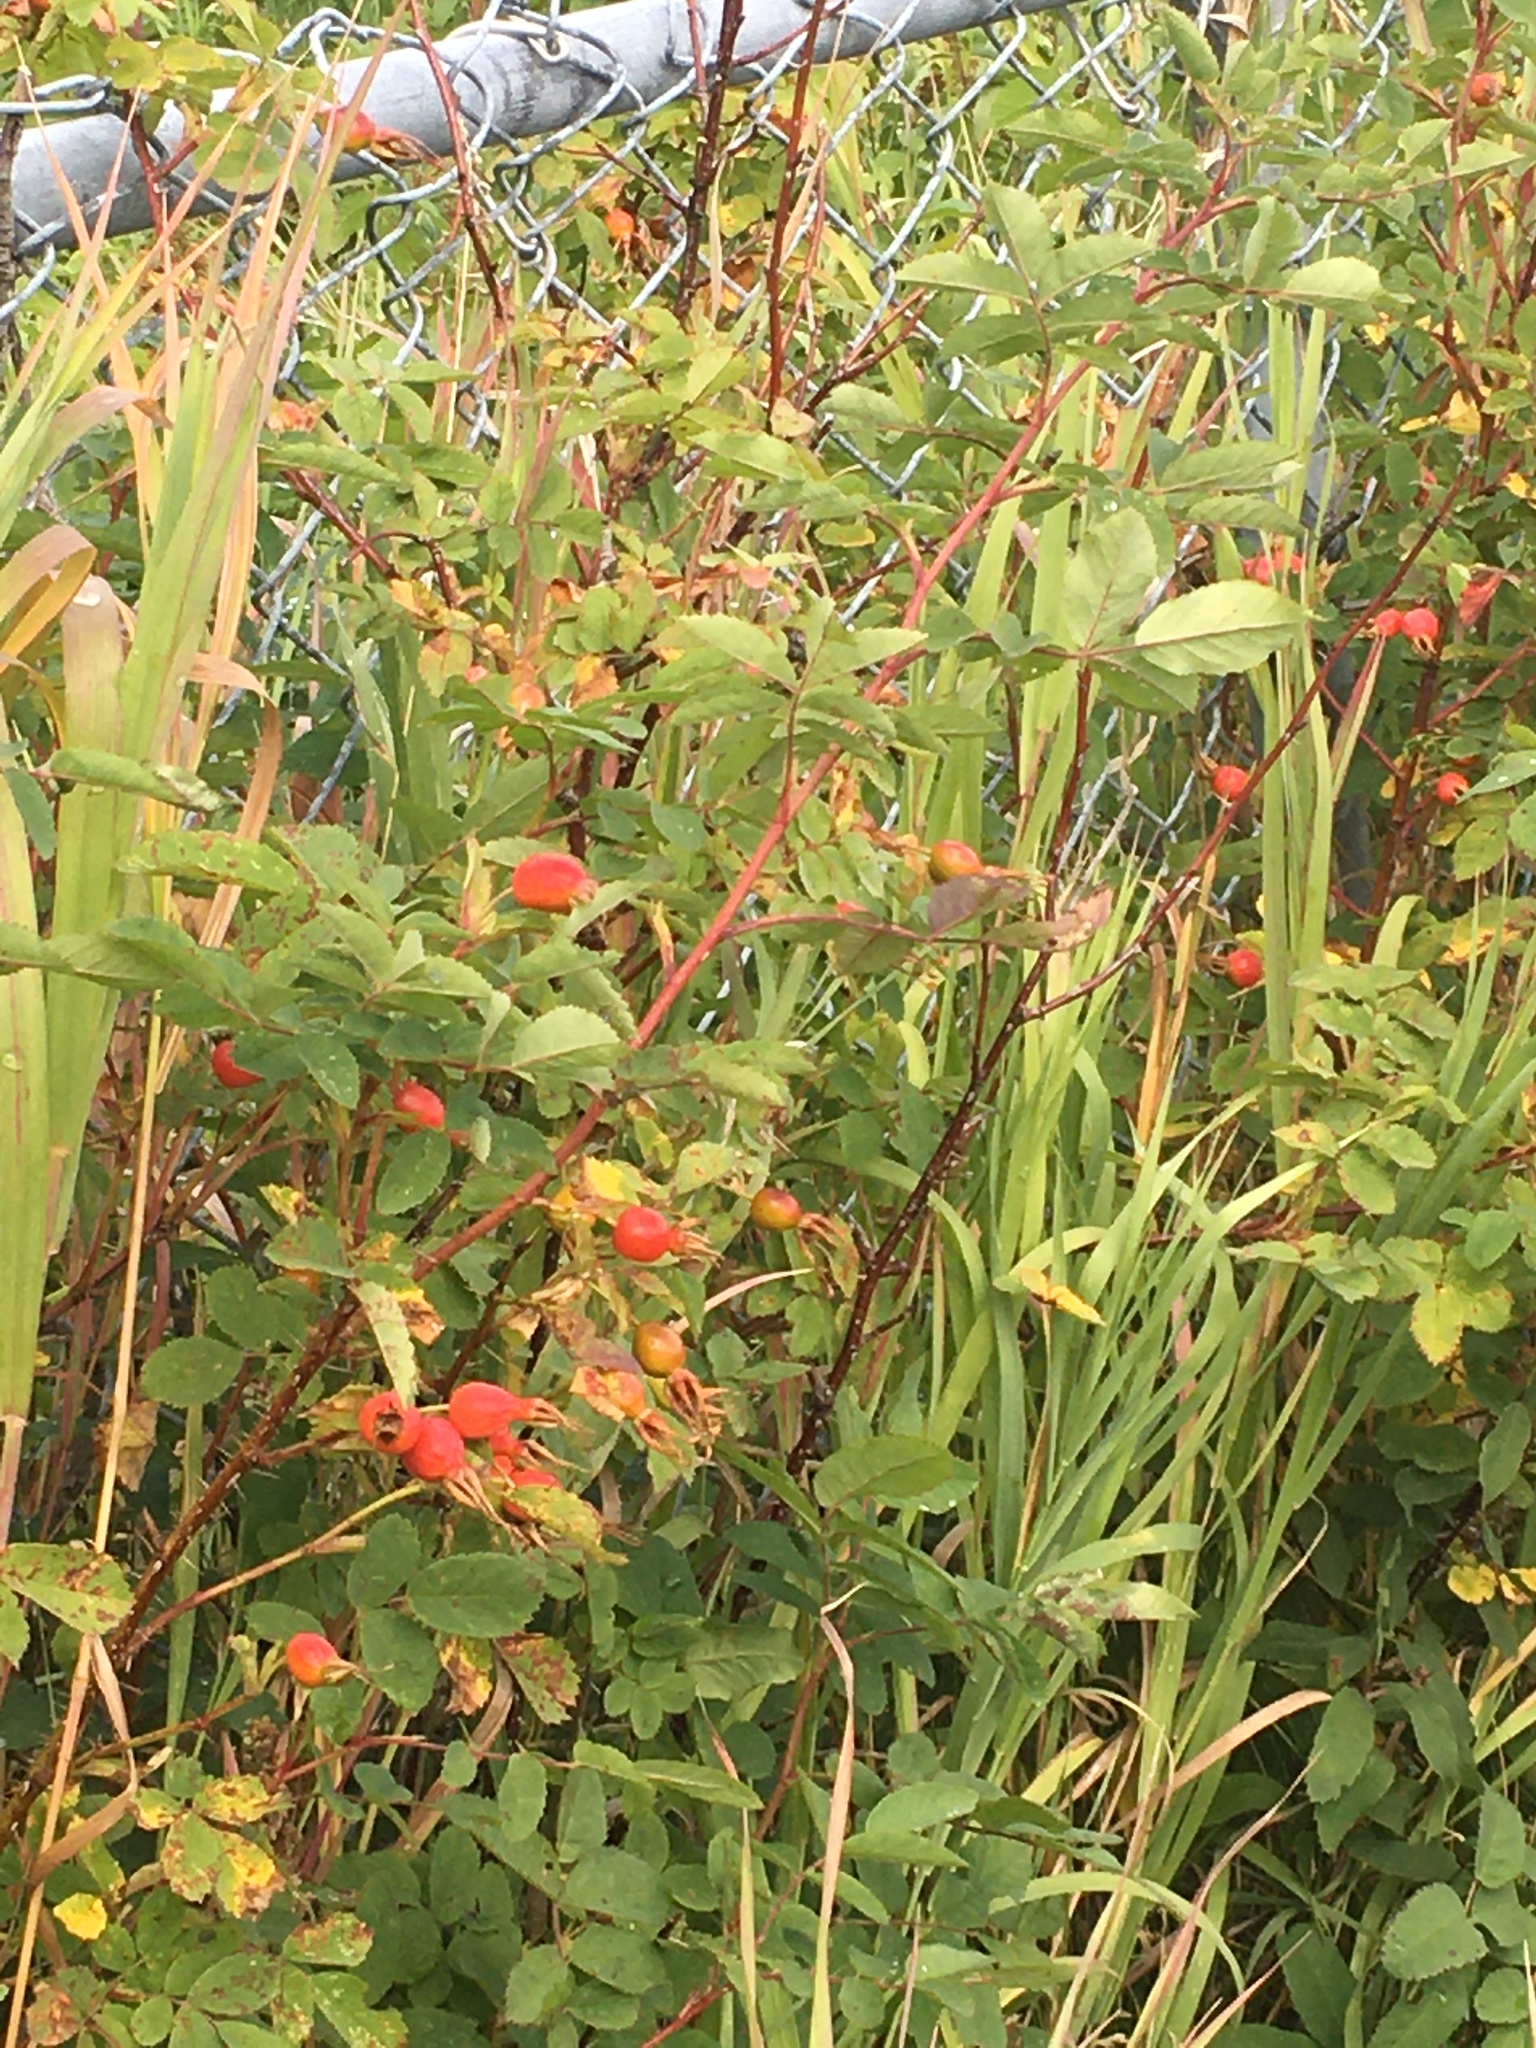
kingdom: Plantae
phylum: Tracheophyta
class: Magnoliopsida
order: Rosales
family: Rosaceae
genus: Rosa
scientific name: Rosa acicularis
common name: Prickly rose
